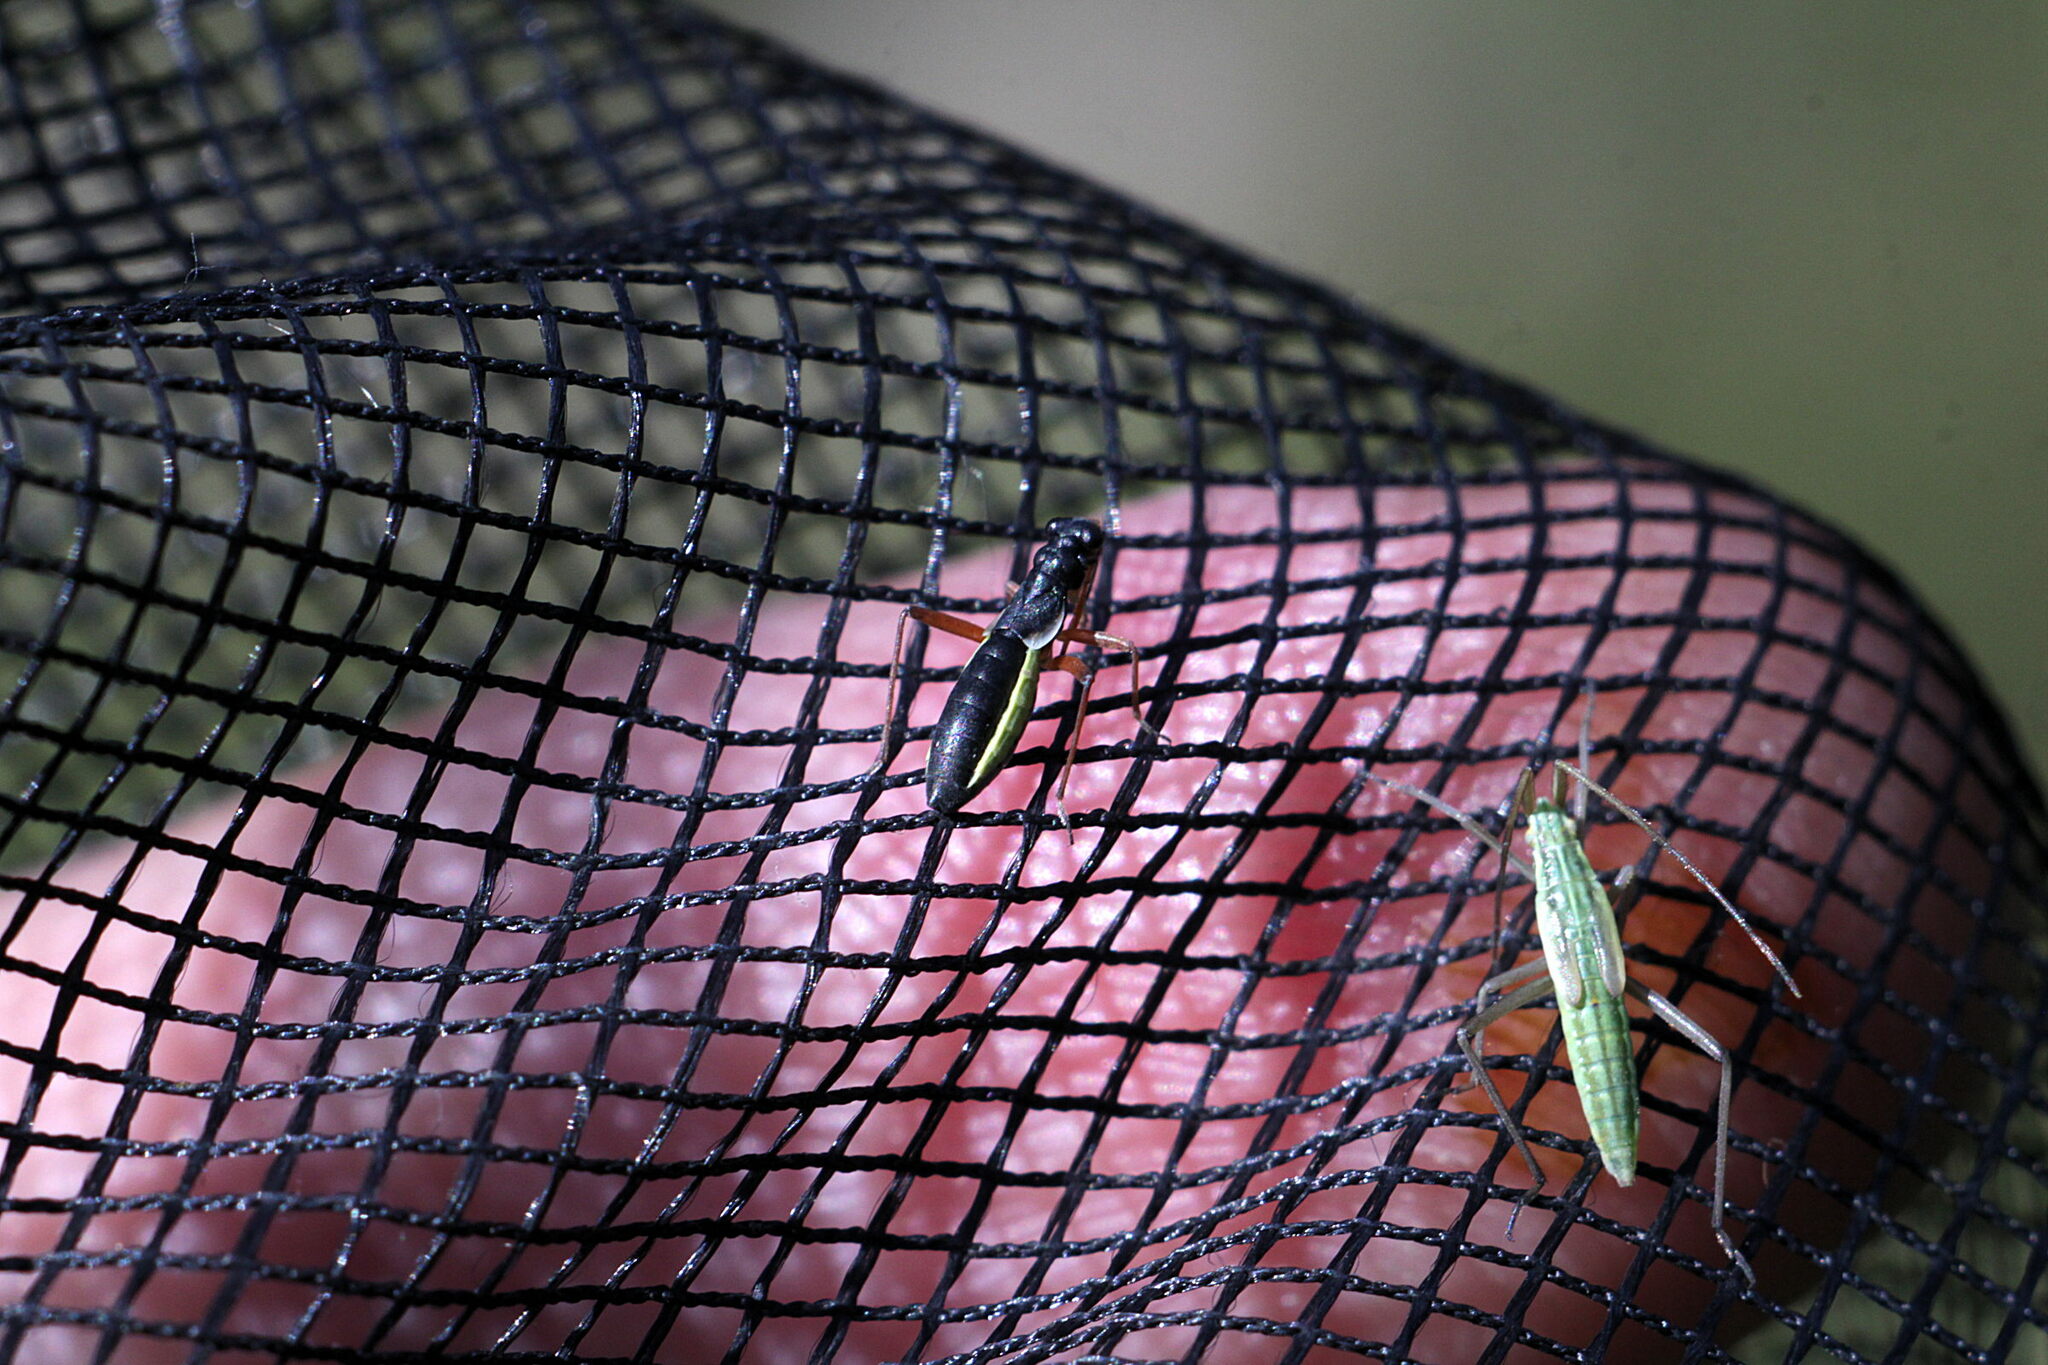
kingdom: Animalia
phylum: Arthropoda
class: Insecta
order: Hemiptera
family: Miridae
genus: Pithanus
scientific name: Pithanus maerkelii
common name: Plant bug
